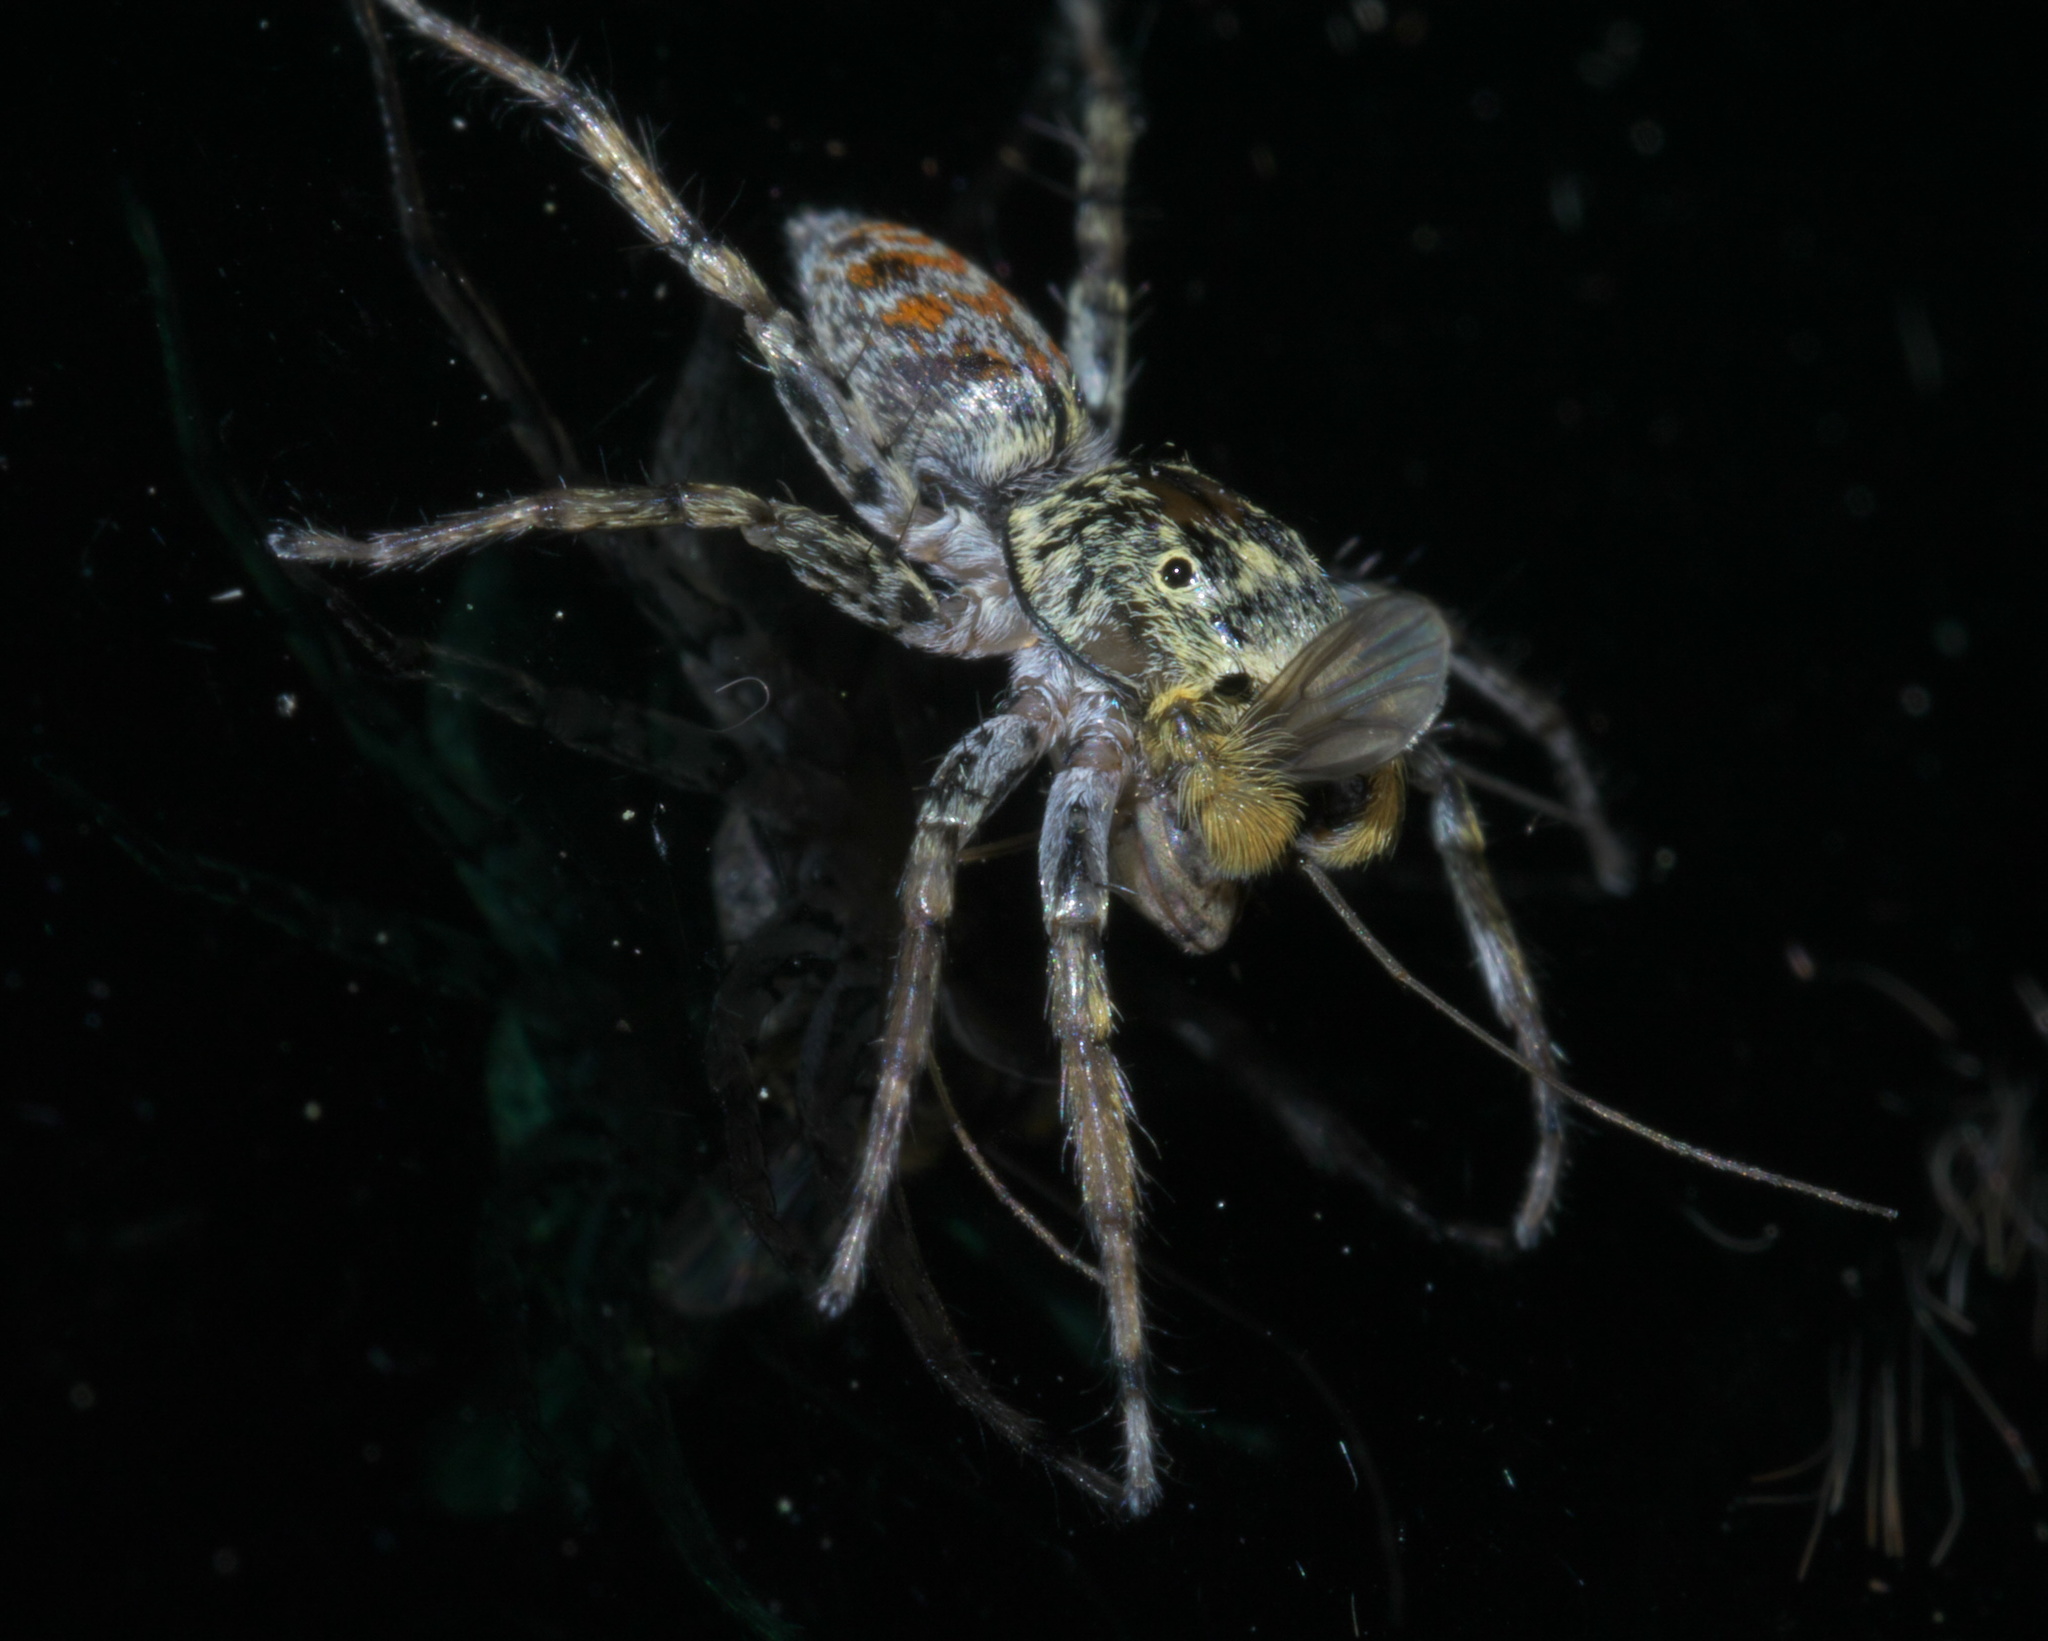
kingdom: Animalia
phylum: Arthropoda
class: Arachnida
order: Araneae
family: Salticidae
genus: Maevia
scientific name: Maevia inclemens
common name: Dimorphic jumper
